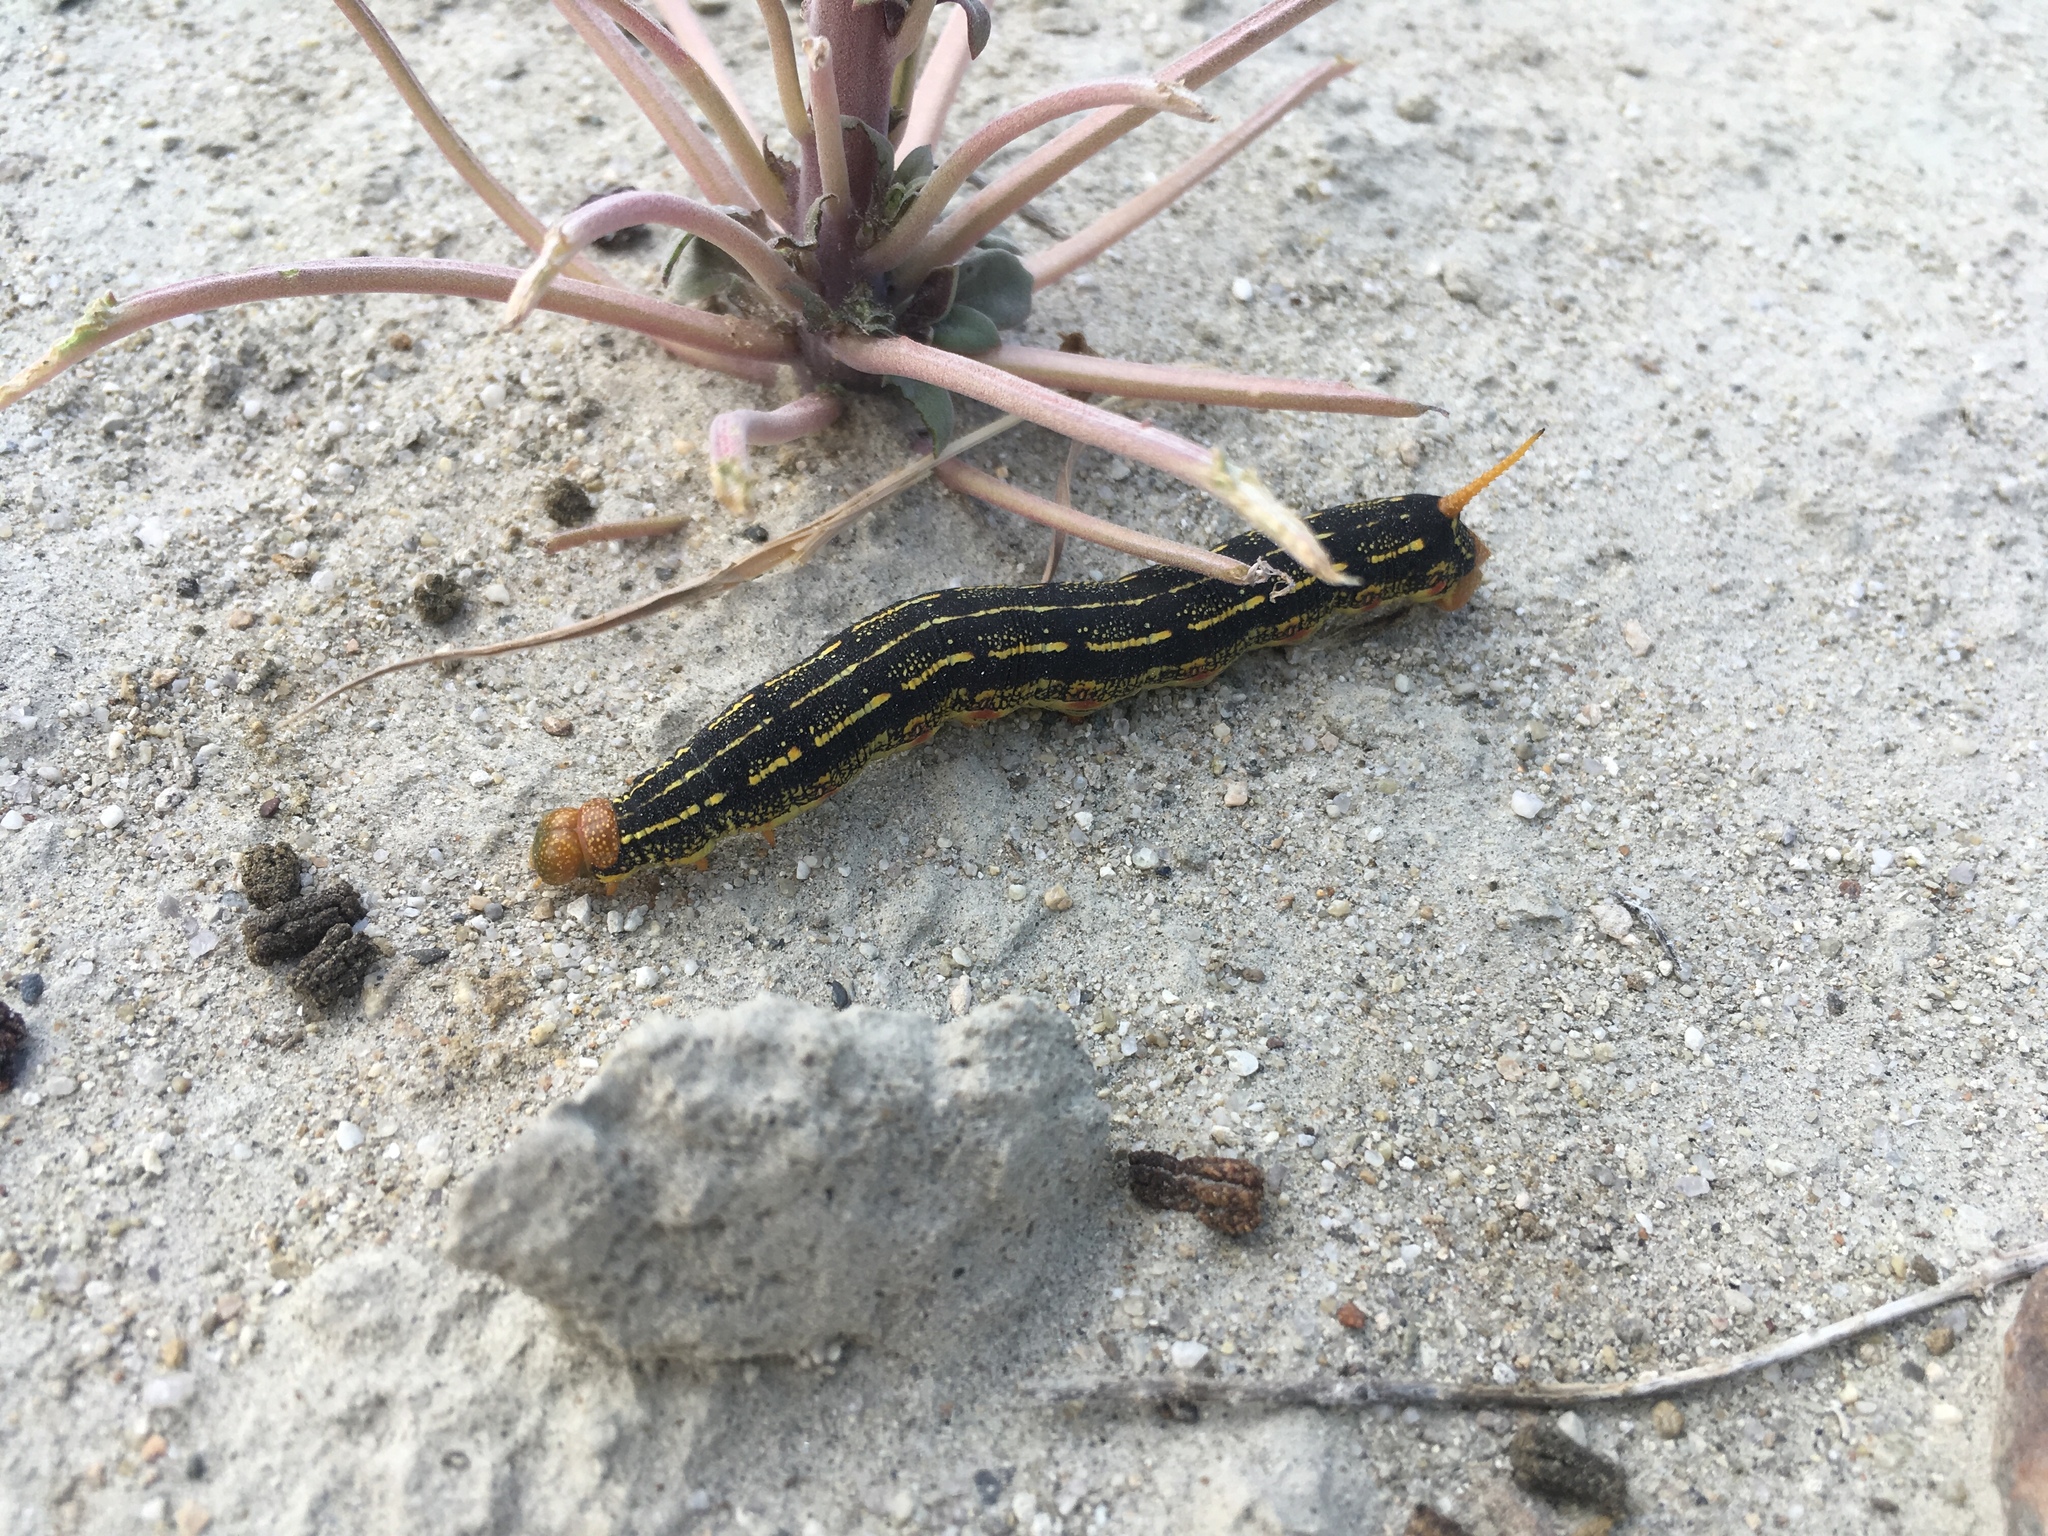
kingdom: Animalia
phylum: Arthropoda
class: Insecta
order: Lepidoptera
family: Sphingidae
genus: Hyles
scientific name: Hyles lineata
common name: White-lined sphinx
